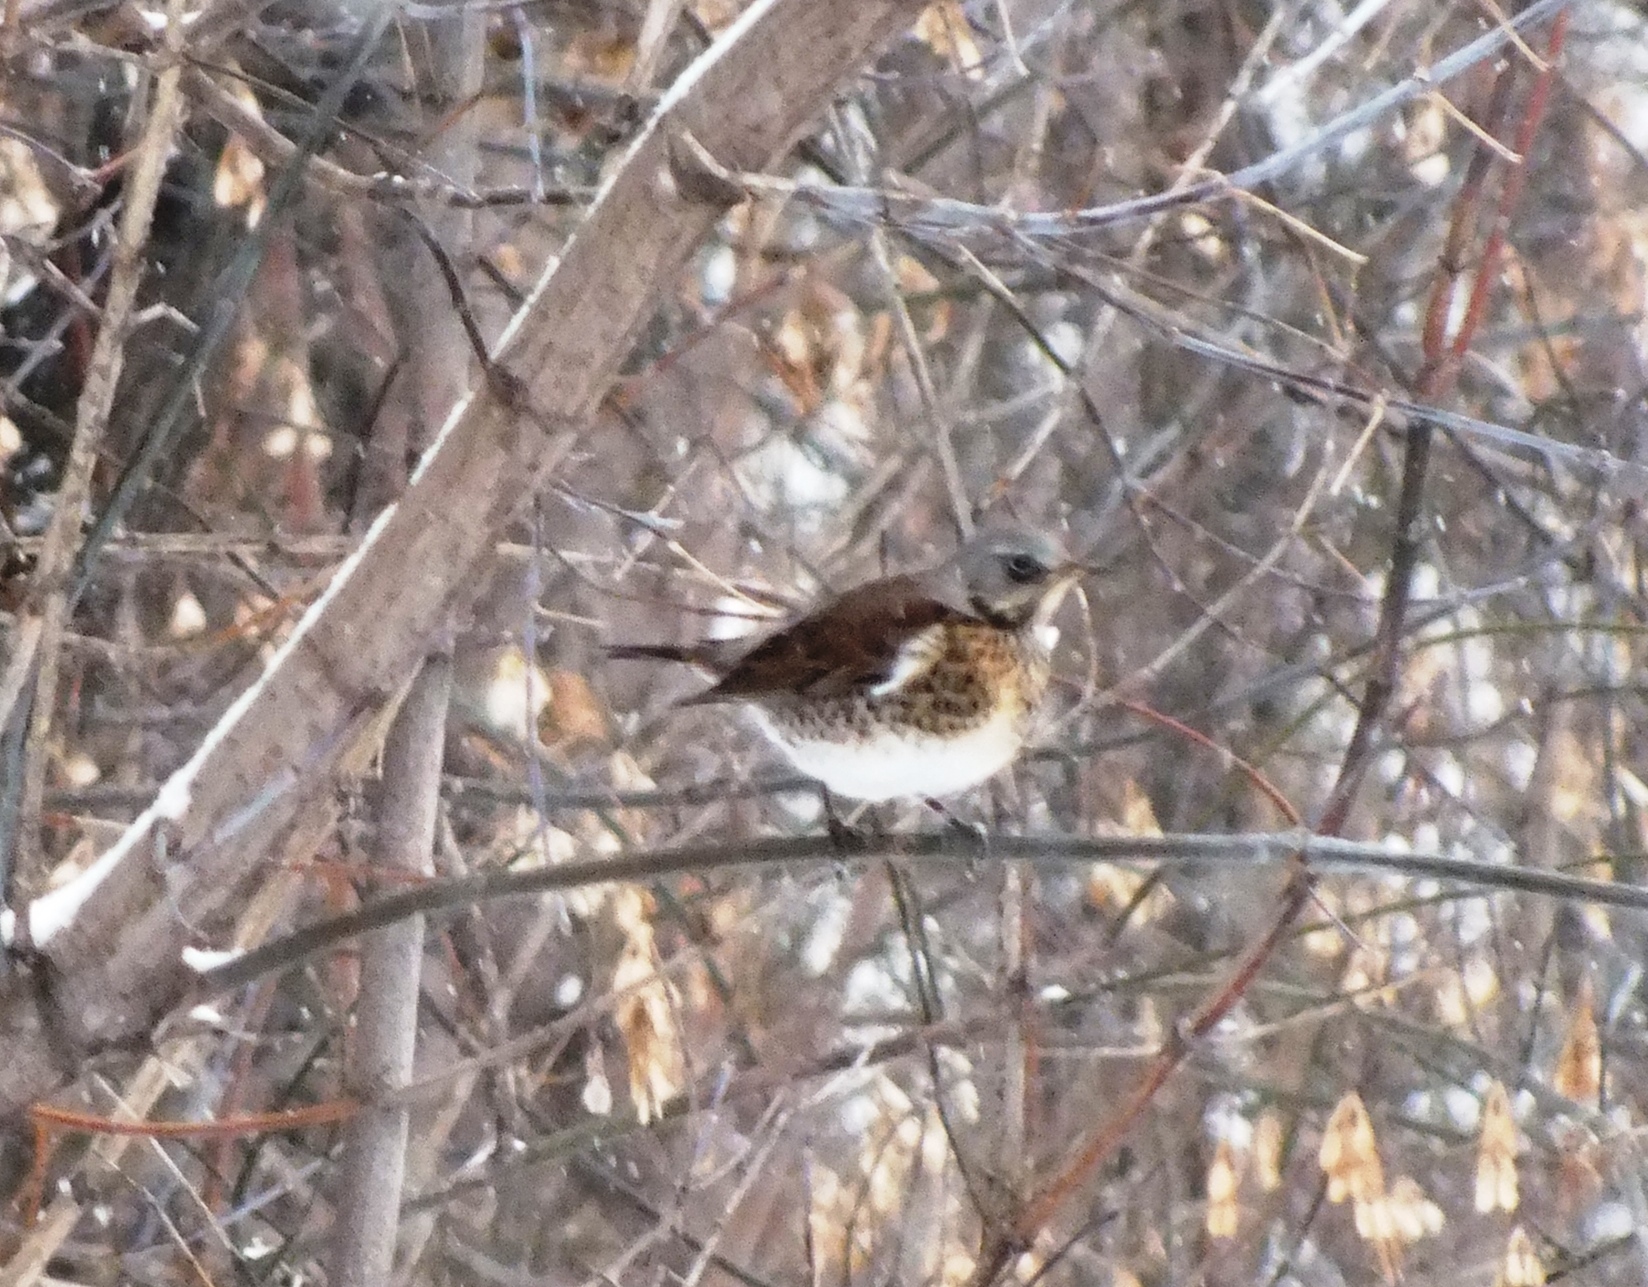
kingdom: Animalia
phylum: Chordata
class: Aves
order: Passeriformes
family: Turdidae
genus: Turdus
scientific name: Turdus pilaris
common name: Fieldfare
